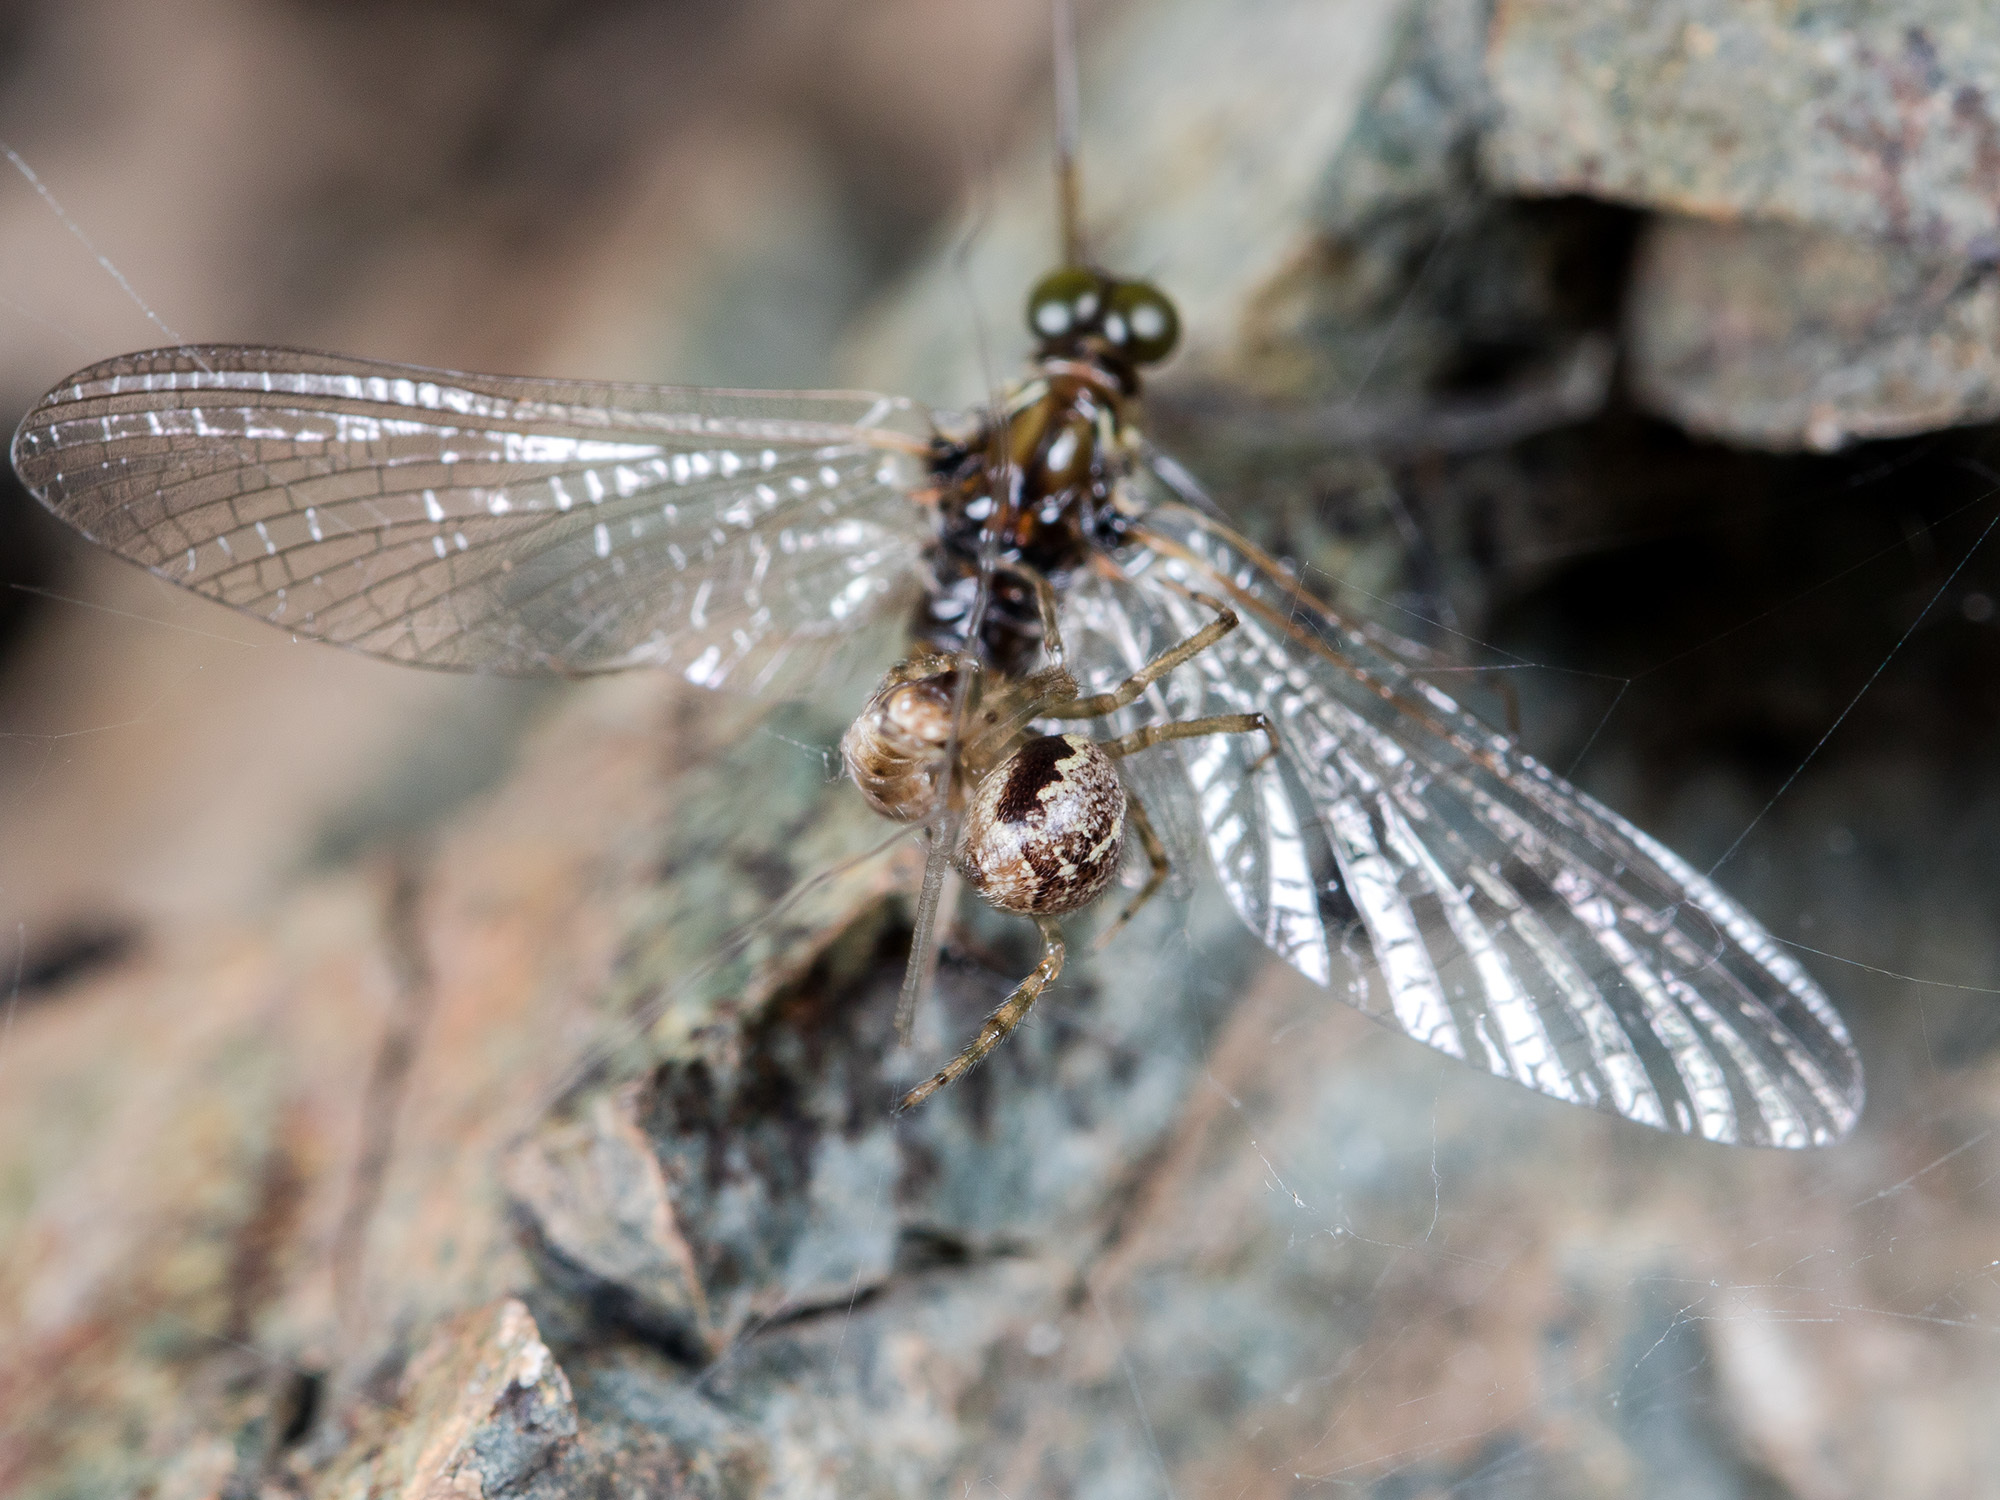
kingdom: Animalia
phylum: Arthropoda
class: Arachnida
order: Araneae
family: Theridiidae
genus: Steatoda
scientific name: Steatoda castanea
